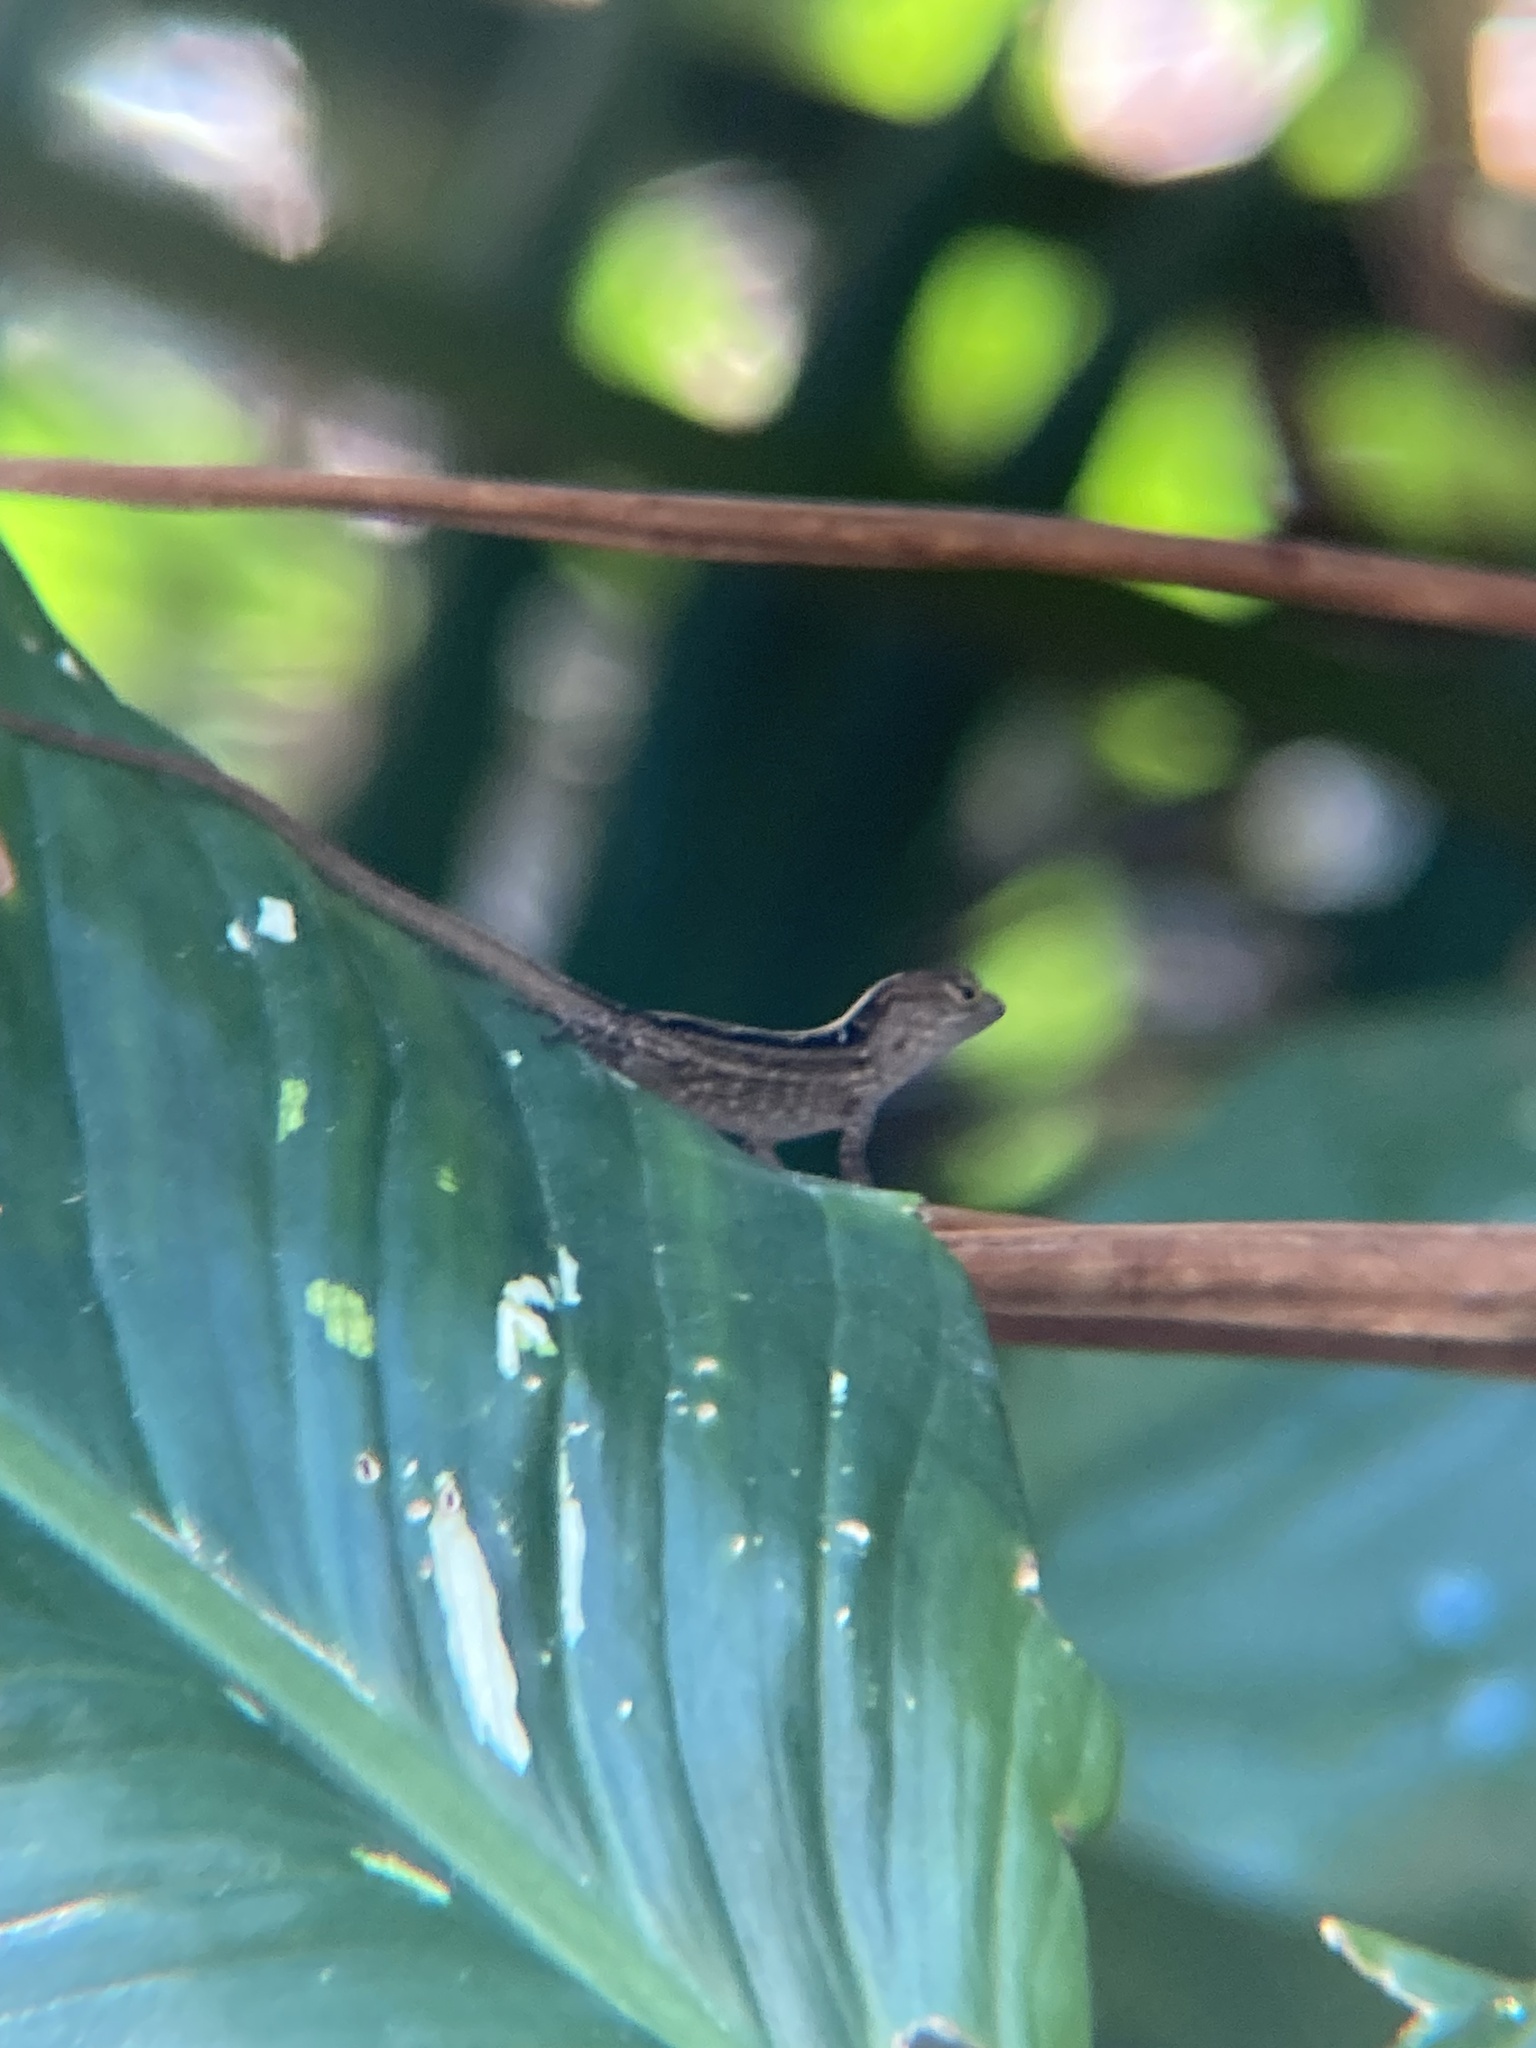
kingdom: Animalia
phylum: Chordata
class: Squamata
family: Dactyloidae
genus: Anolis
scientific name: Anolis sagrei
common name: Brown anole
